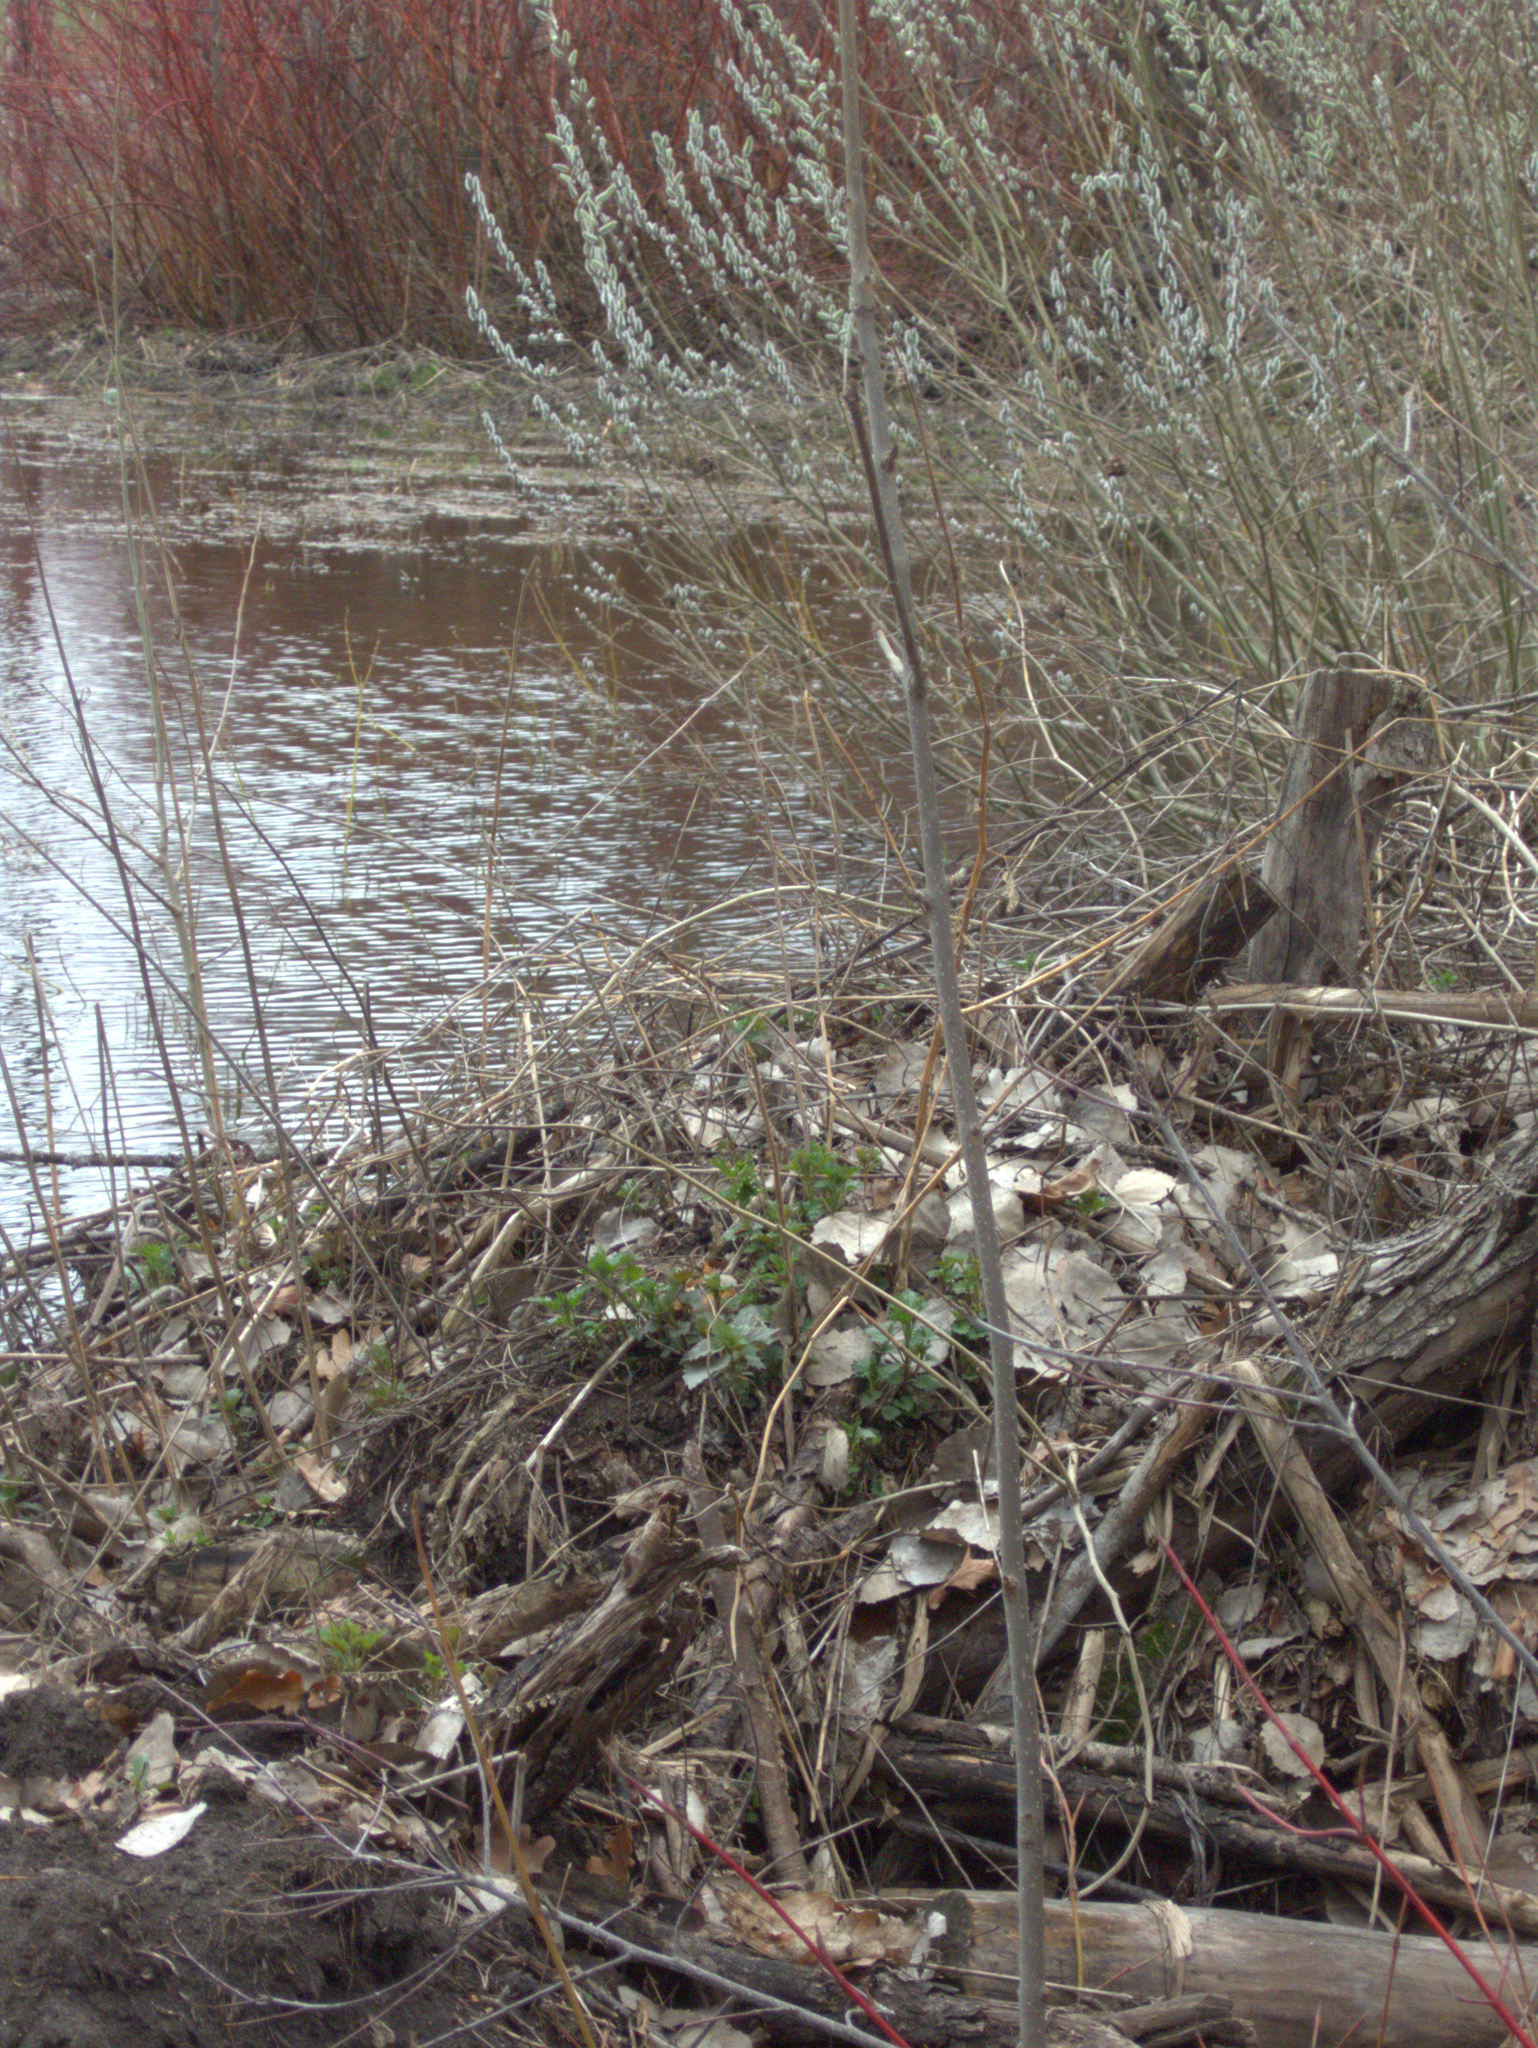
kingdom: Plantae
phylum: Tracheophyta
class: Magnoliopsida
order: Rosales
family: Urticaceae
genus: Urtica
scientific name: Urtica dioica
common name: Common nettle
